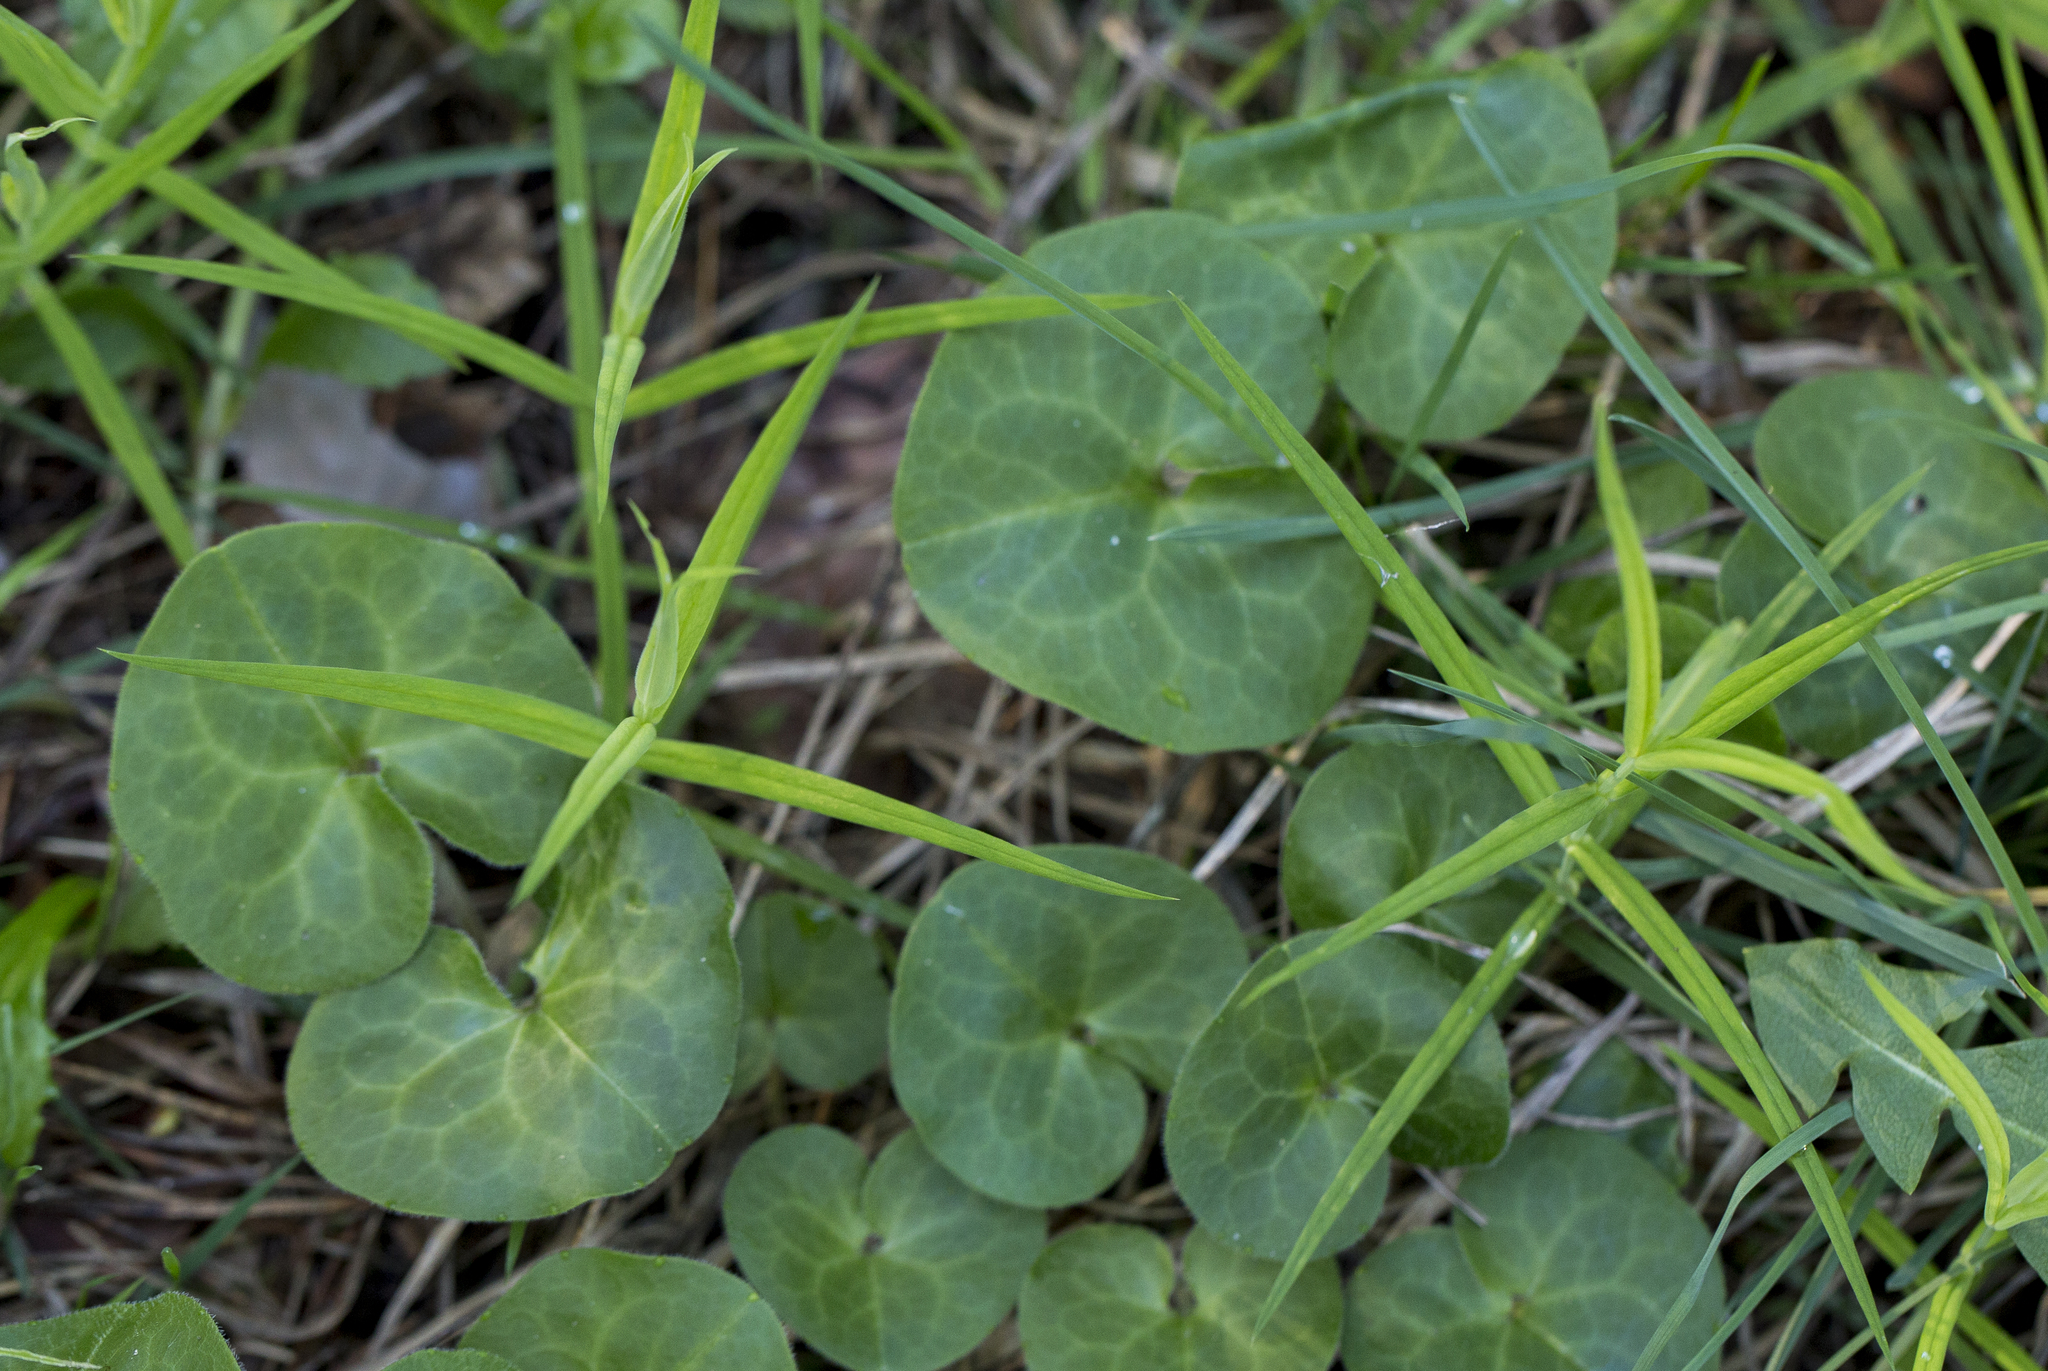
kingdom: Plantae
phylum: Tracheophyta
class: Magnoliopsida
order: Piperales
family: Aristolochiaceae
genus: Asarum
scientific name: Asarum europaeum
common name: Asarabacca
